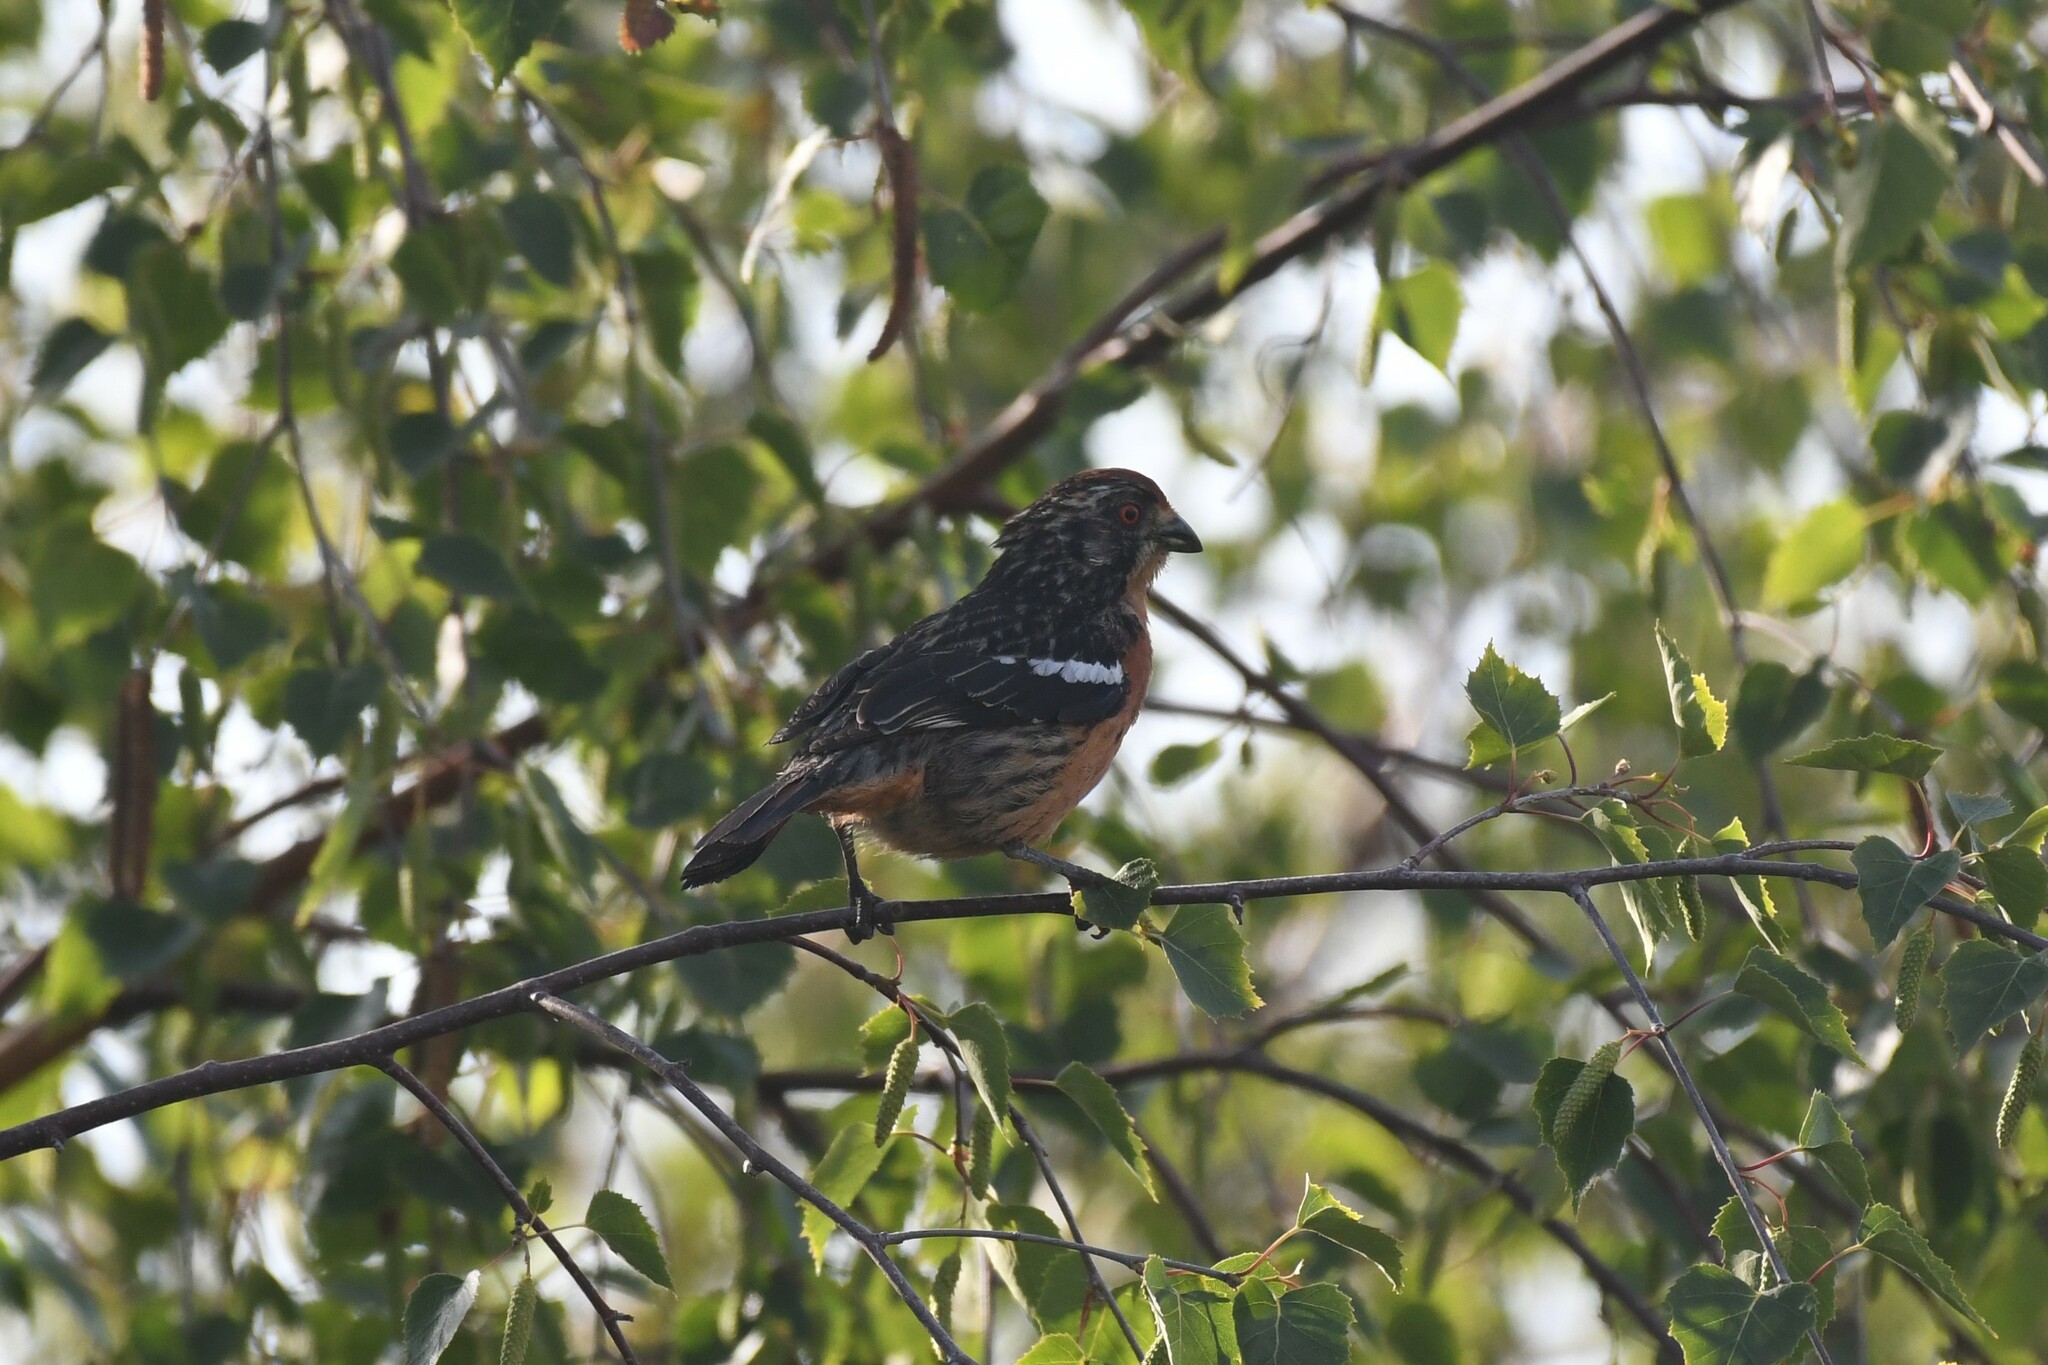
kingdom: Animalia
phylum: Chordata
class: Aves
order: Passeriformes
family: Cotingidae
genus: Phytotoma
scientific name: Phytotoma rara
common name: Rufous-tailed plantcutter
